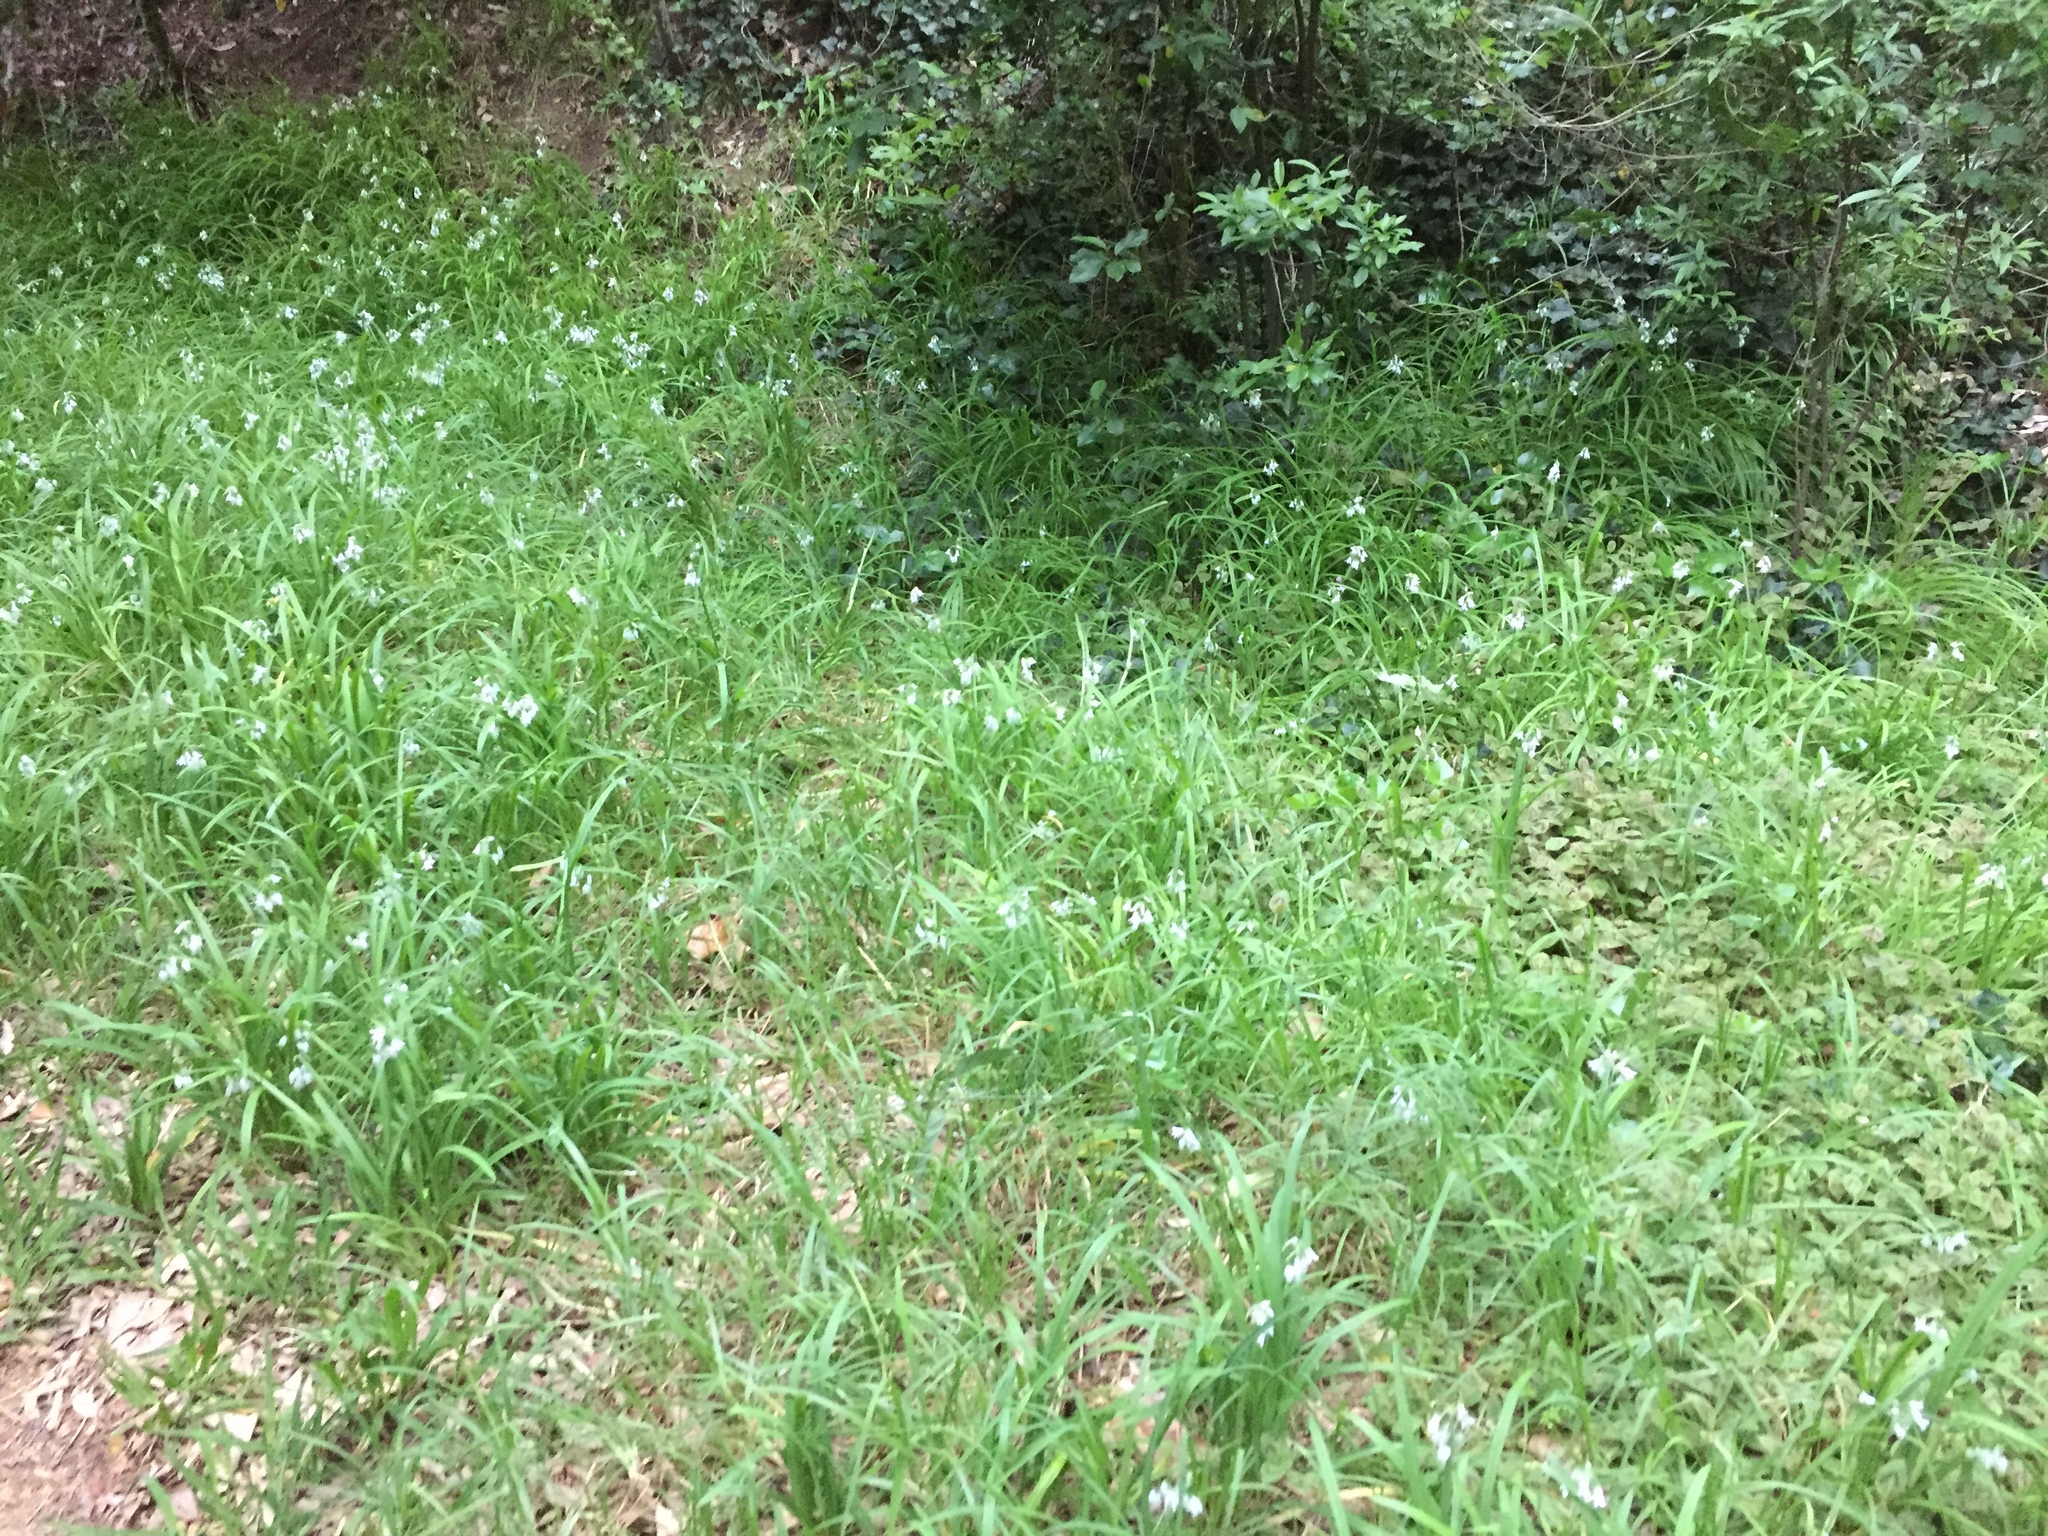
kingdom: Plantae
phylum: Tracheophyta
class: Liliopsida
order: Asparagales
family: Amaryllidaceae
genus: Allium
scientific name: Allium triquetrum
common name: Three-cornered garlic
